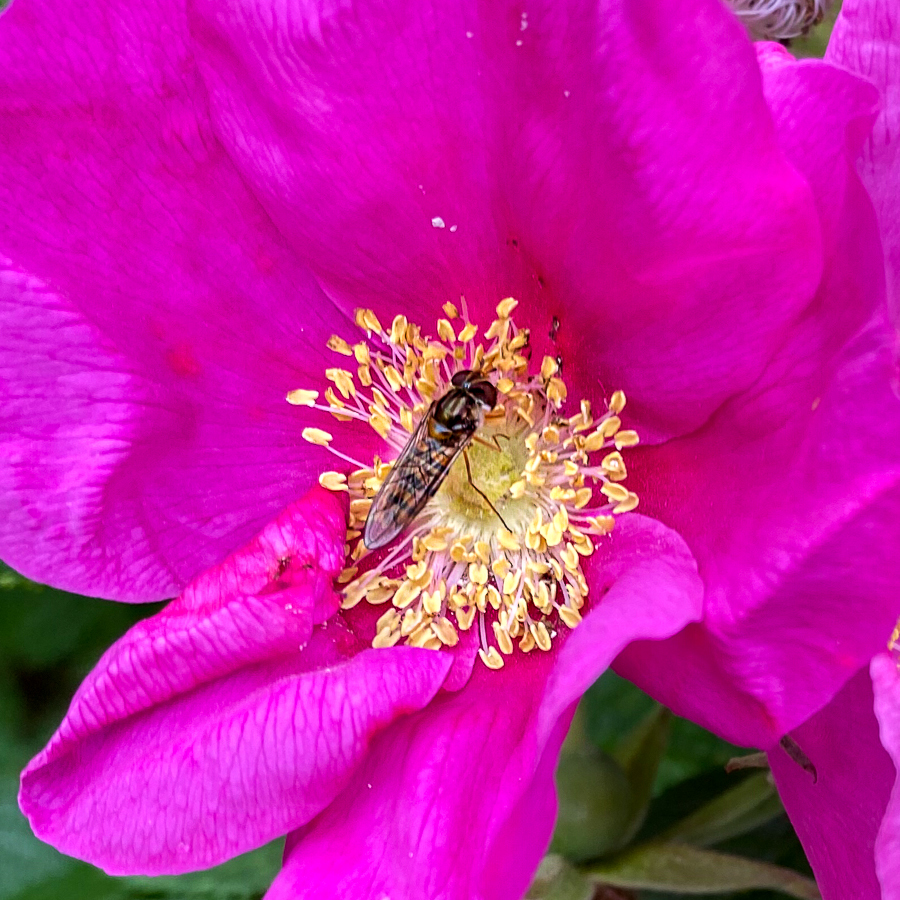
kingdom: Animalia
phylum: Arthropoda
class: Insecta
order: Diptera
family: Syrphidae
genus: Episyrphus
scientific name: Episyrphus balteatus
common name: Marmalade hoverfly
